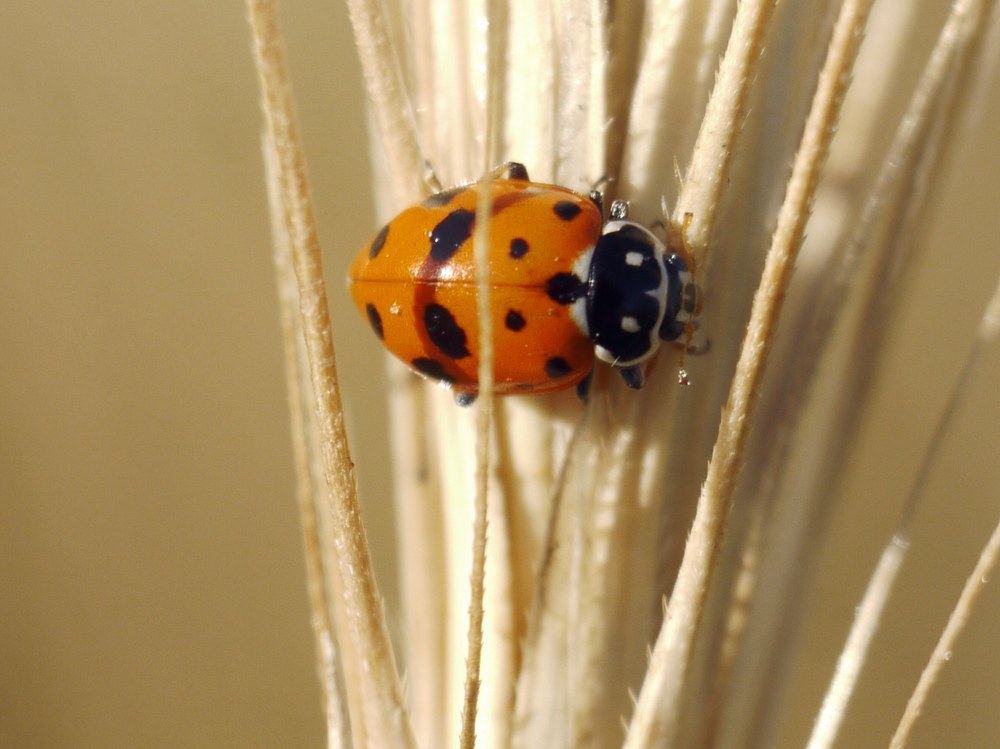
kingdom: Animalia
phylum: Arthropoda
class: Insecta
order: Coleoptera
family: Coccinellidae
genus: Hippodamia
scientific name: Hippodamia variegata
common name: Ladybird beetle
